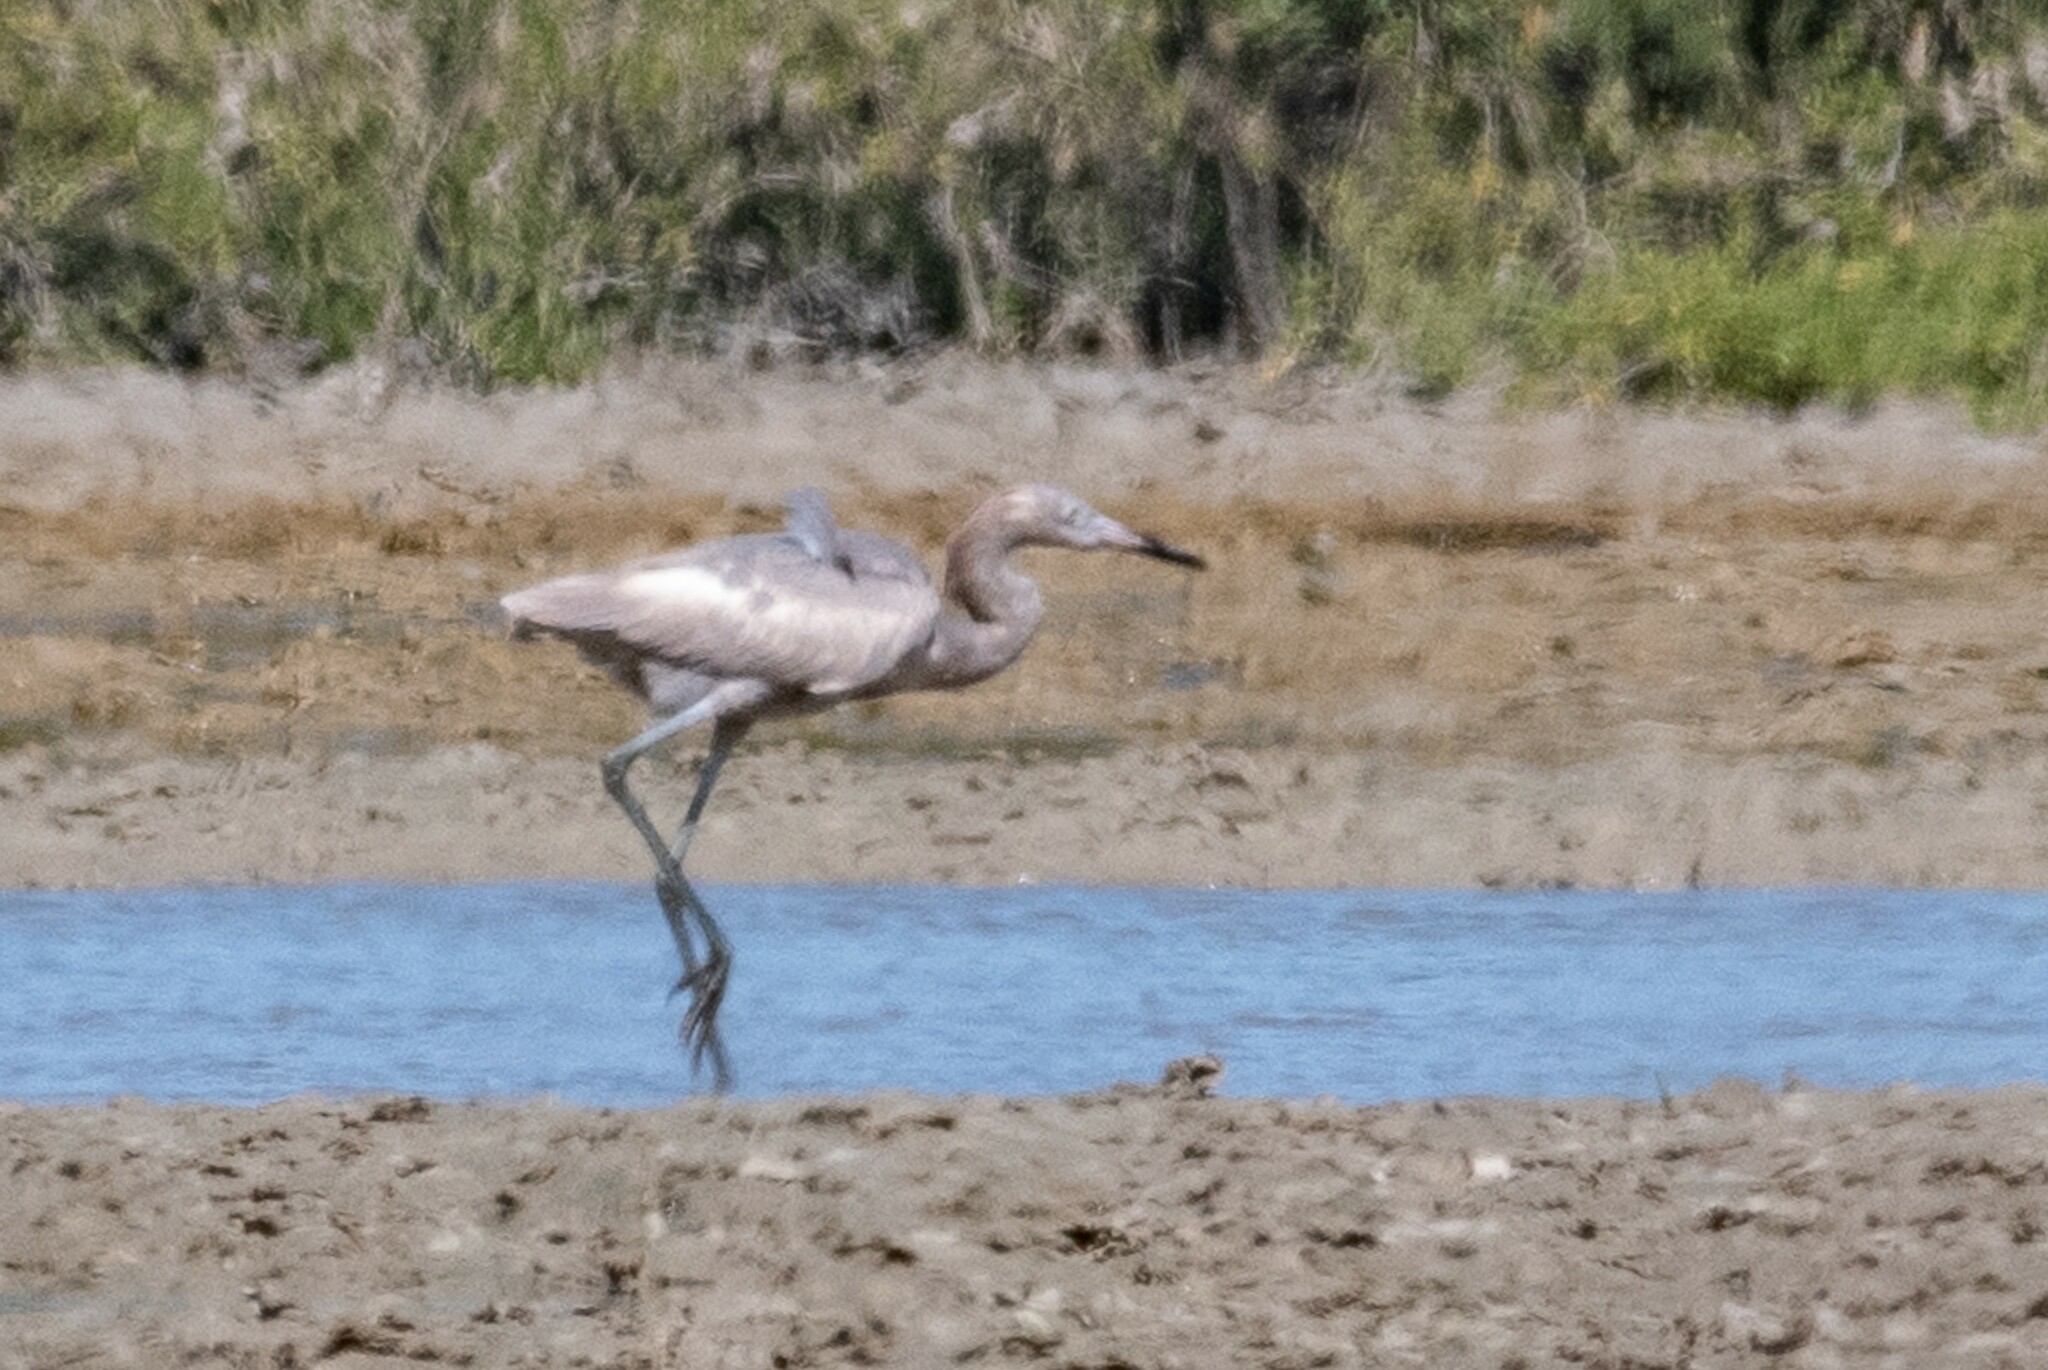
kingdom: Animalia
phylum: Chordata
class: Aves
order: Pelecaniformes
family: Ardeidae
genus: Egretta
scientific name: Egretta rufescens
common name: Reddish egret
